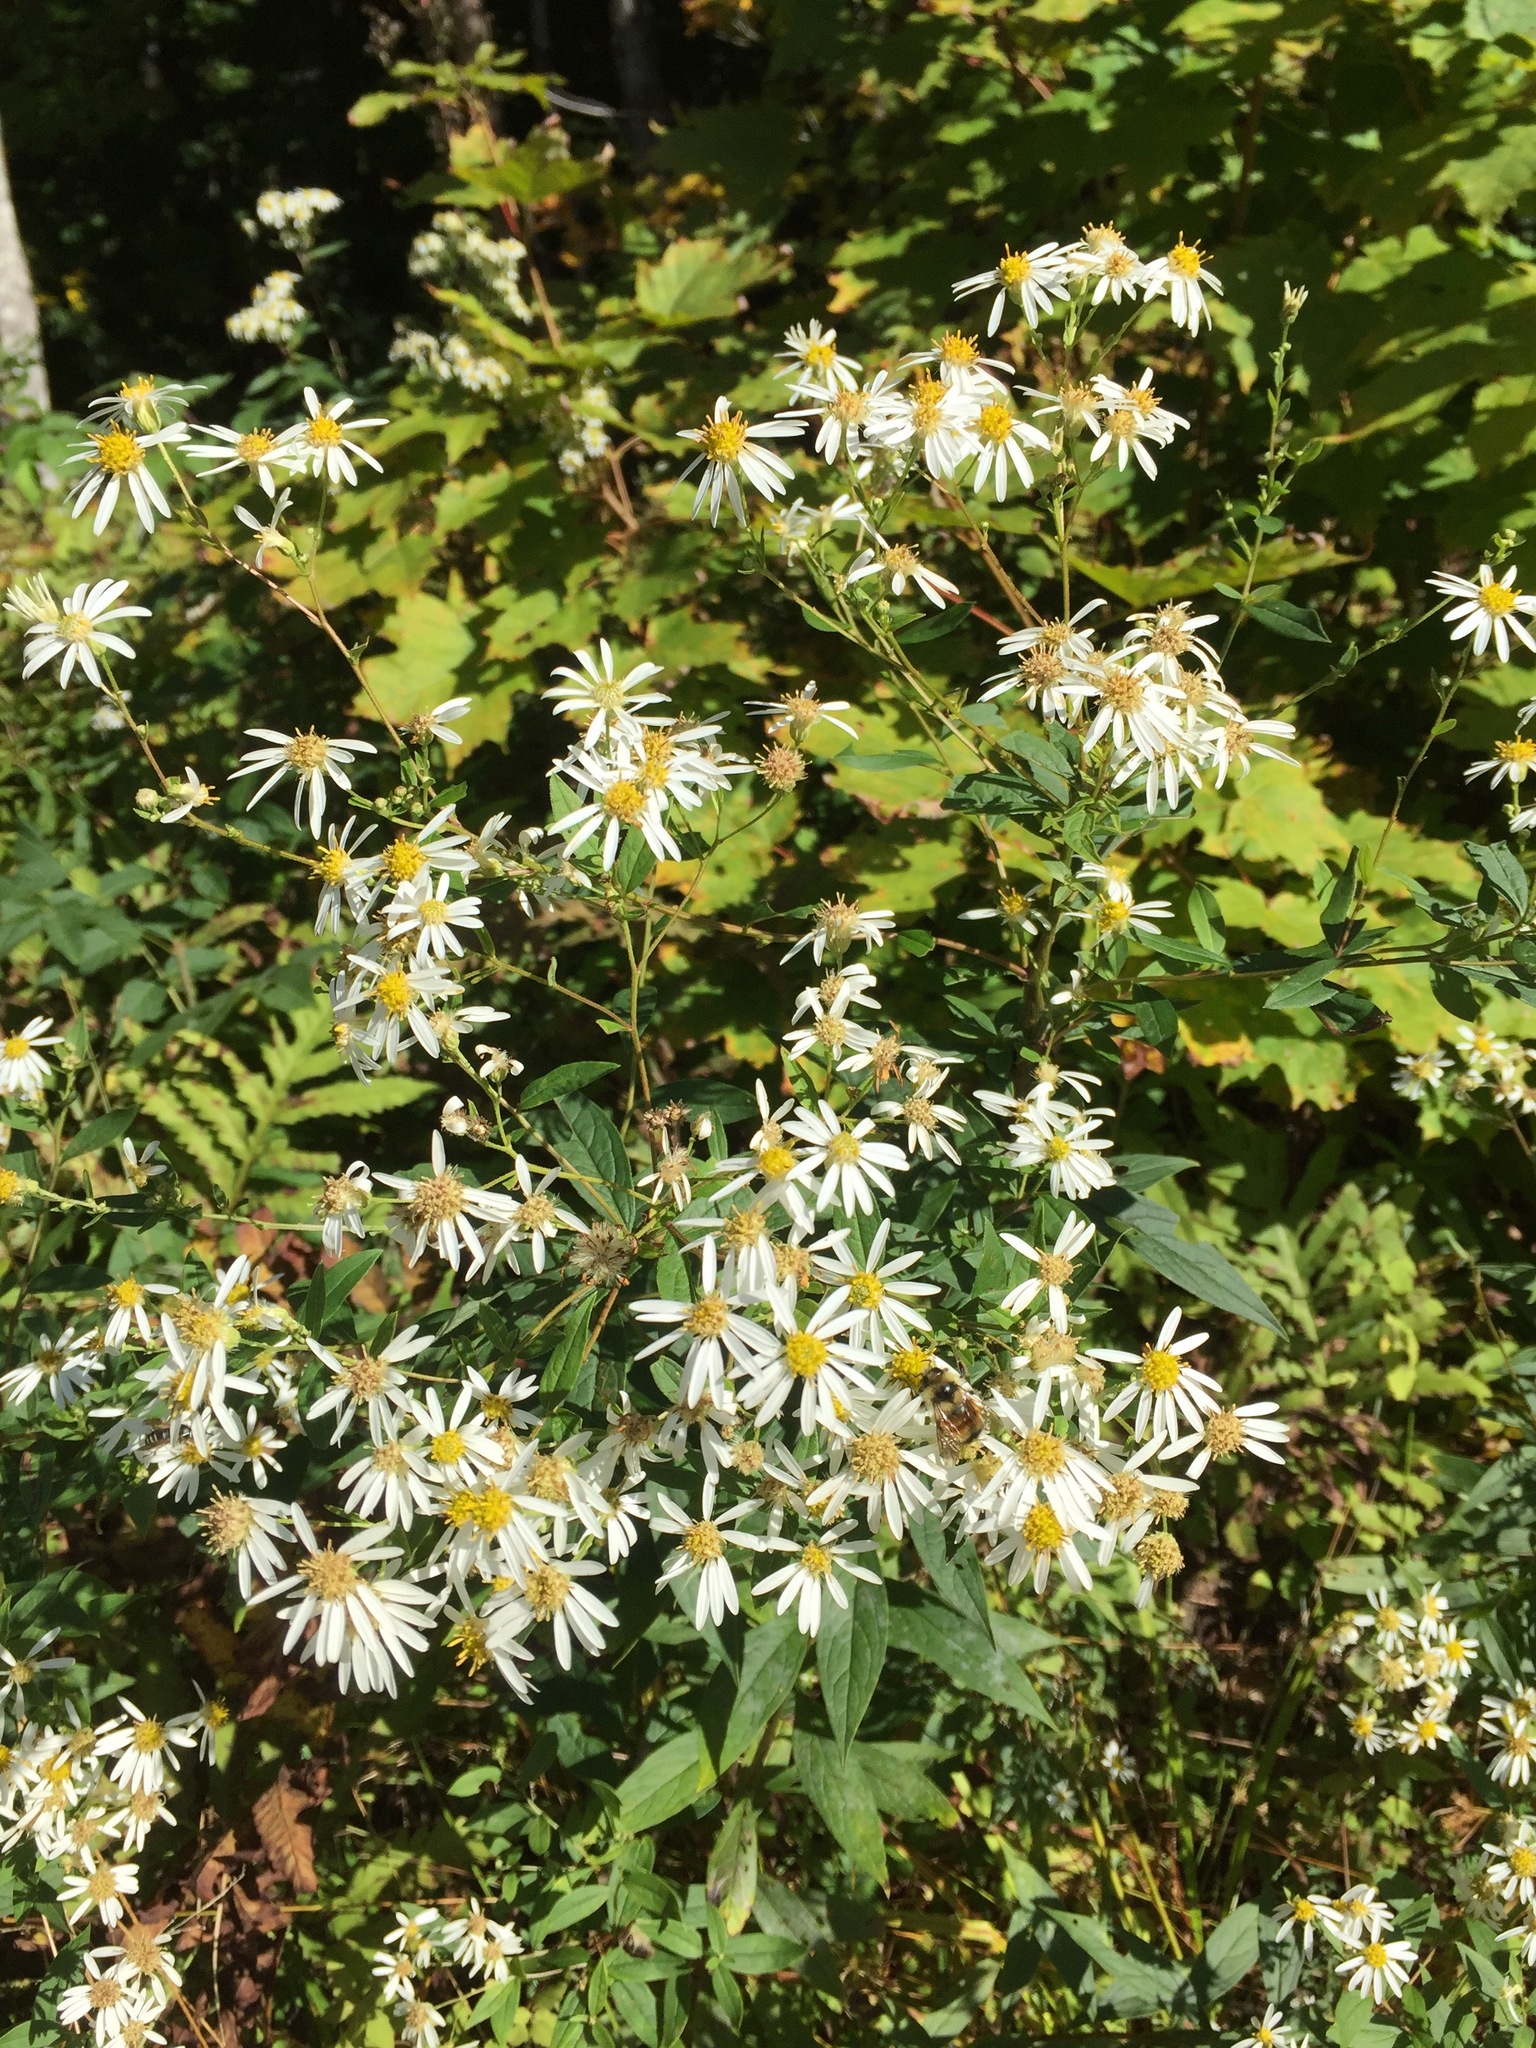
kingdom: Plantae
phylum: Tracheophyta
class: Magnoliopsida
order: Asterales
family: Asteraceae
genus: Doellingeria
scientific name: Doellingeria umbellata
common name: Flat-top white aster
